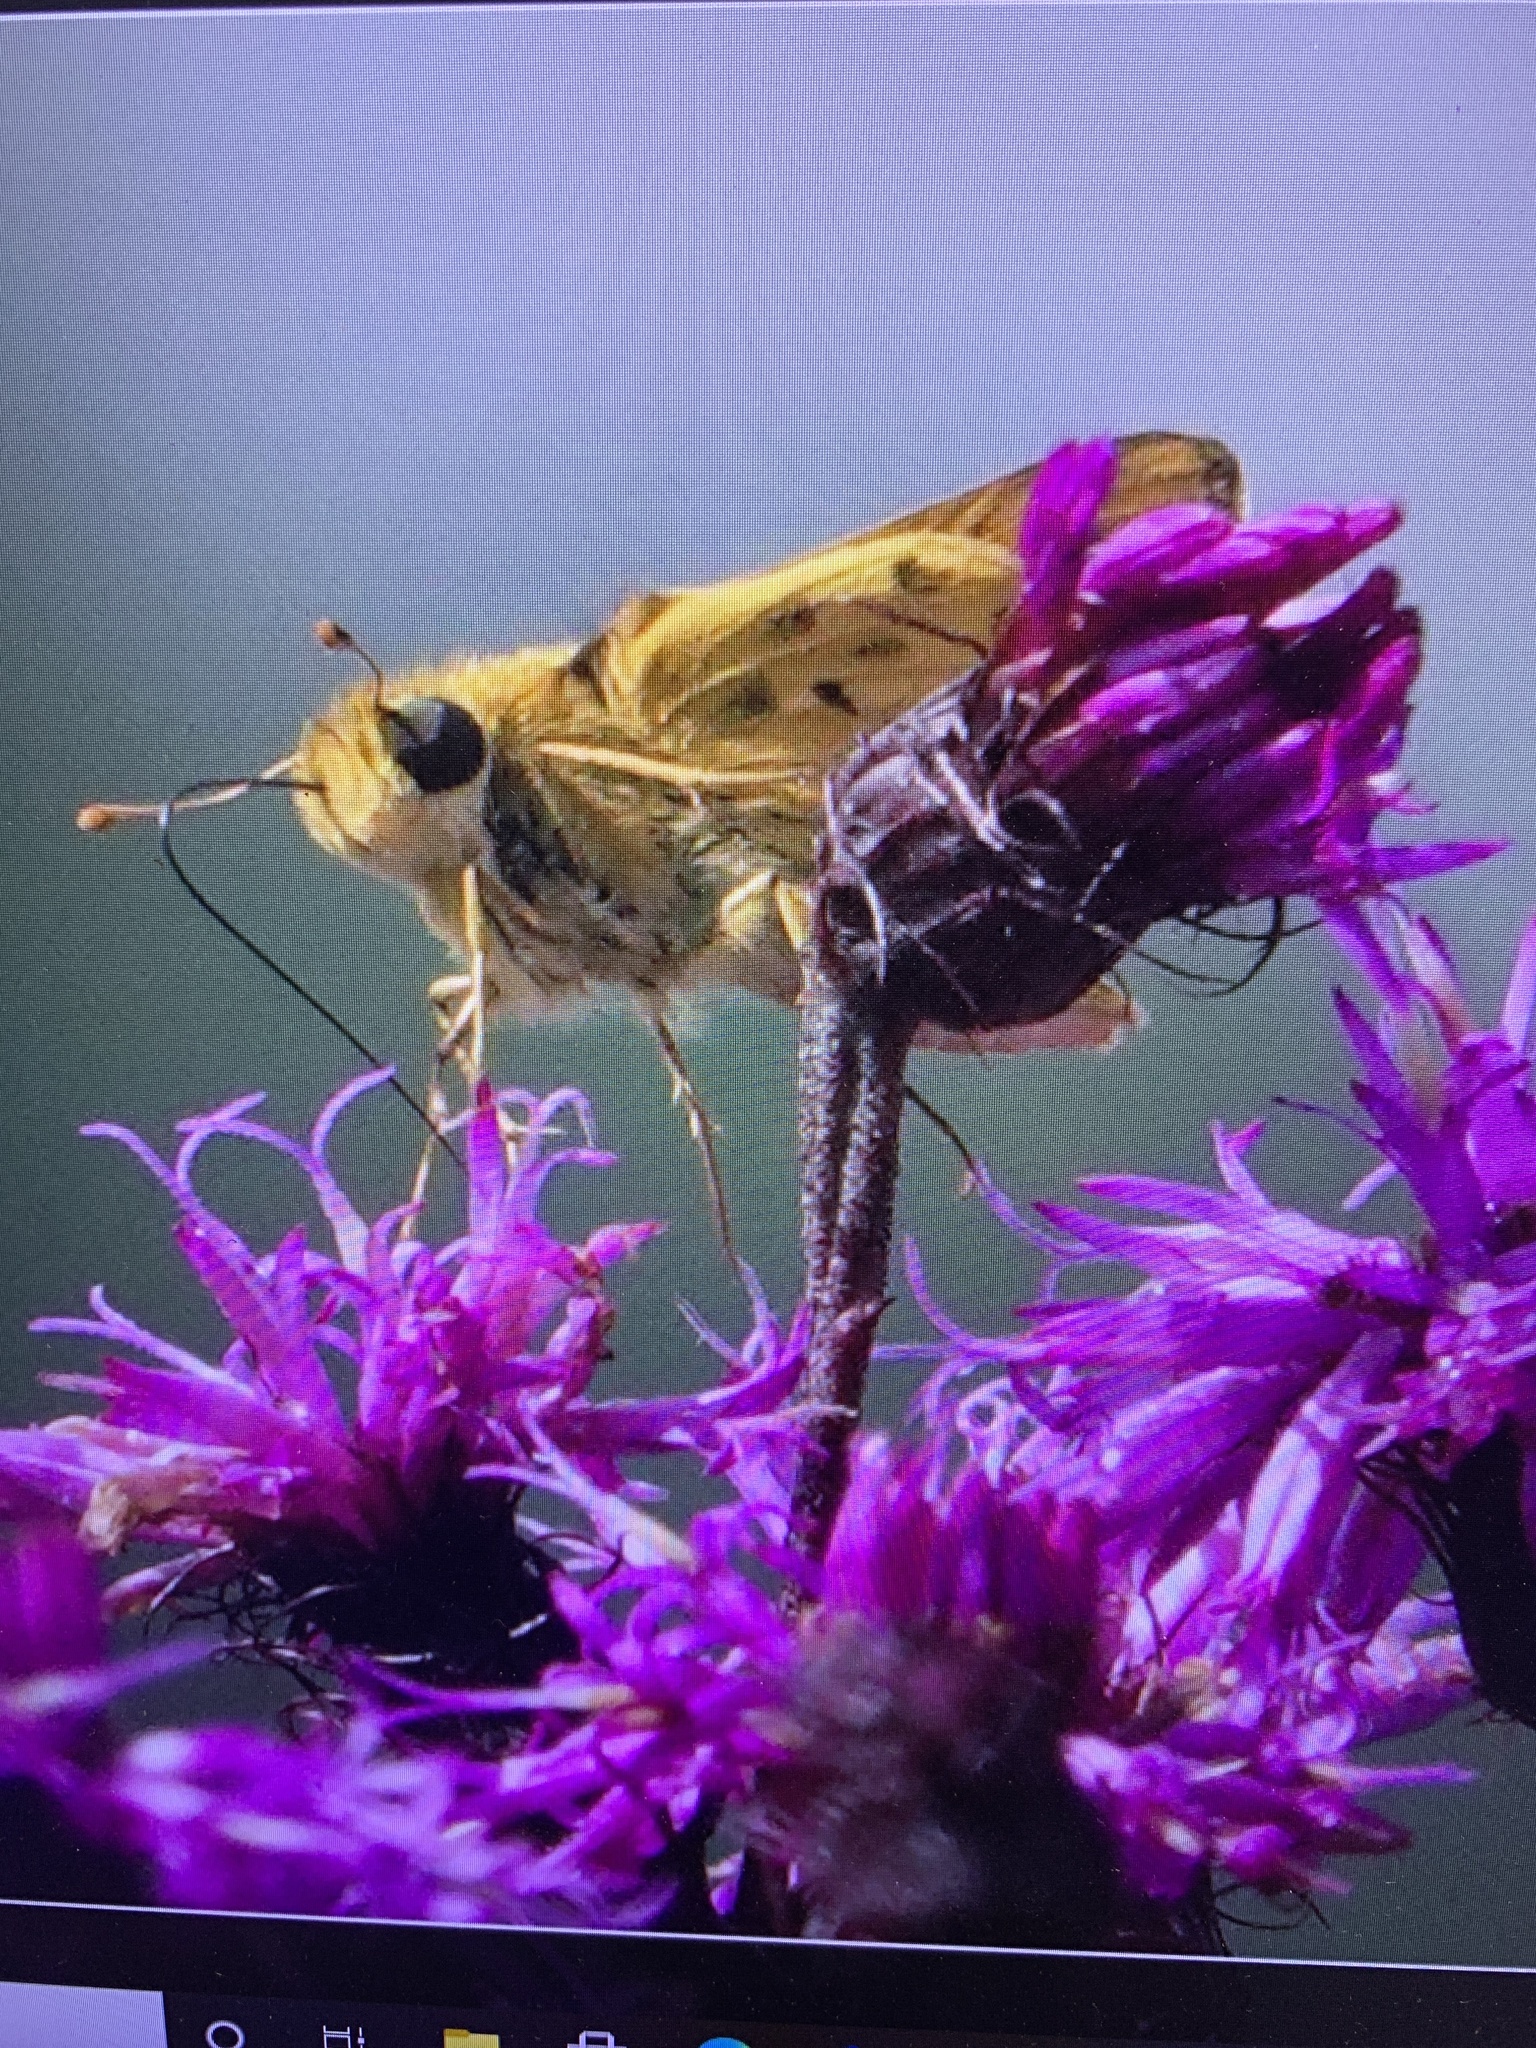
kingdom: Animalia
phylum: Arthropoda
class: Insecta
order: Lepidoptera
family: Hesperiidae
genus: Hylephila
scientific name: Hylephila phyleus
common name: Fiery skipper
